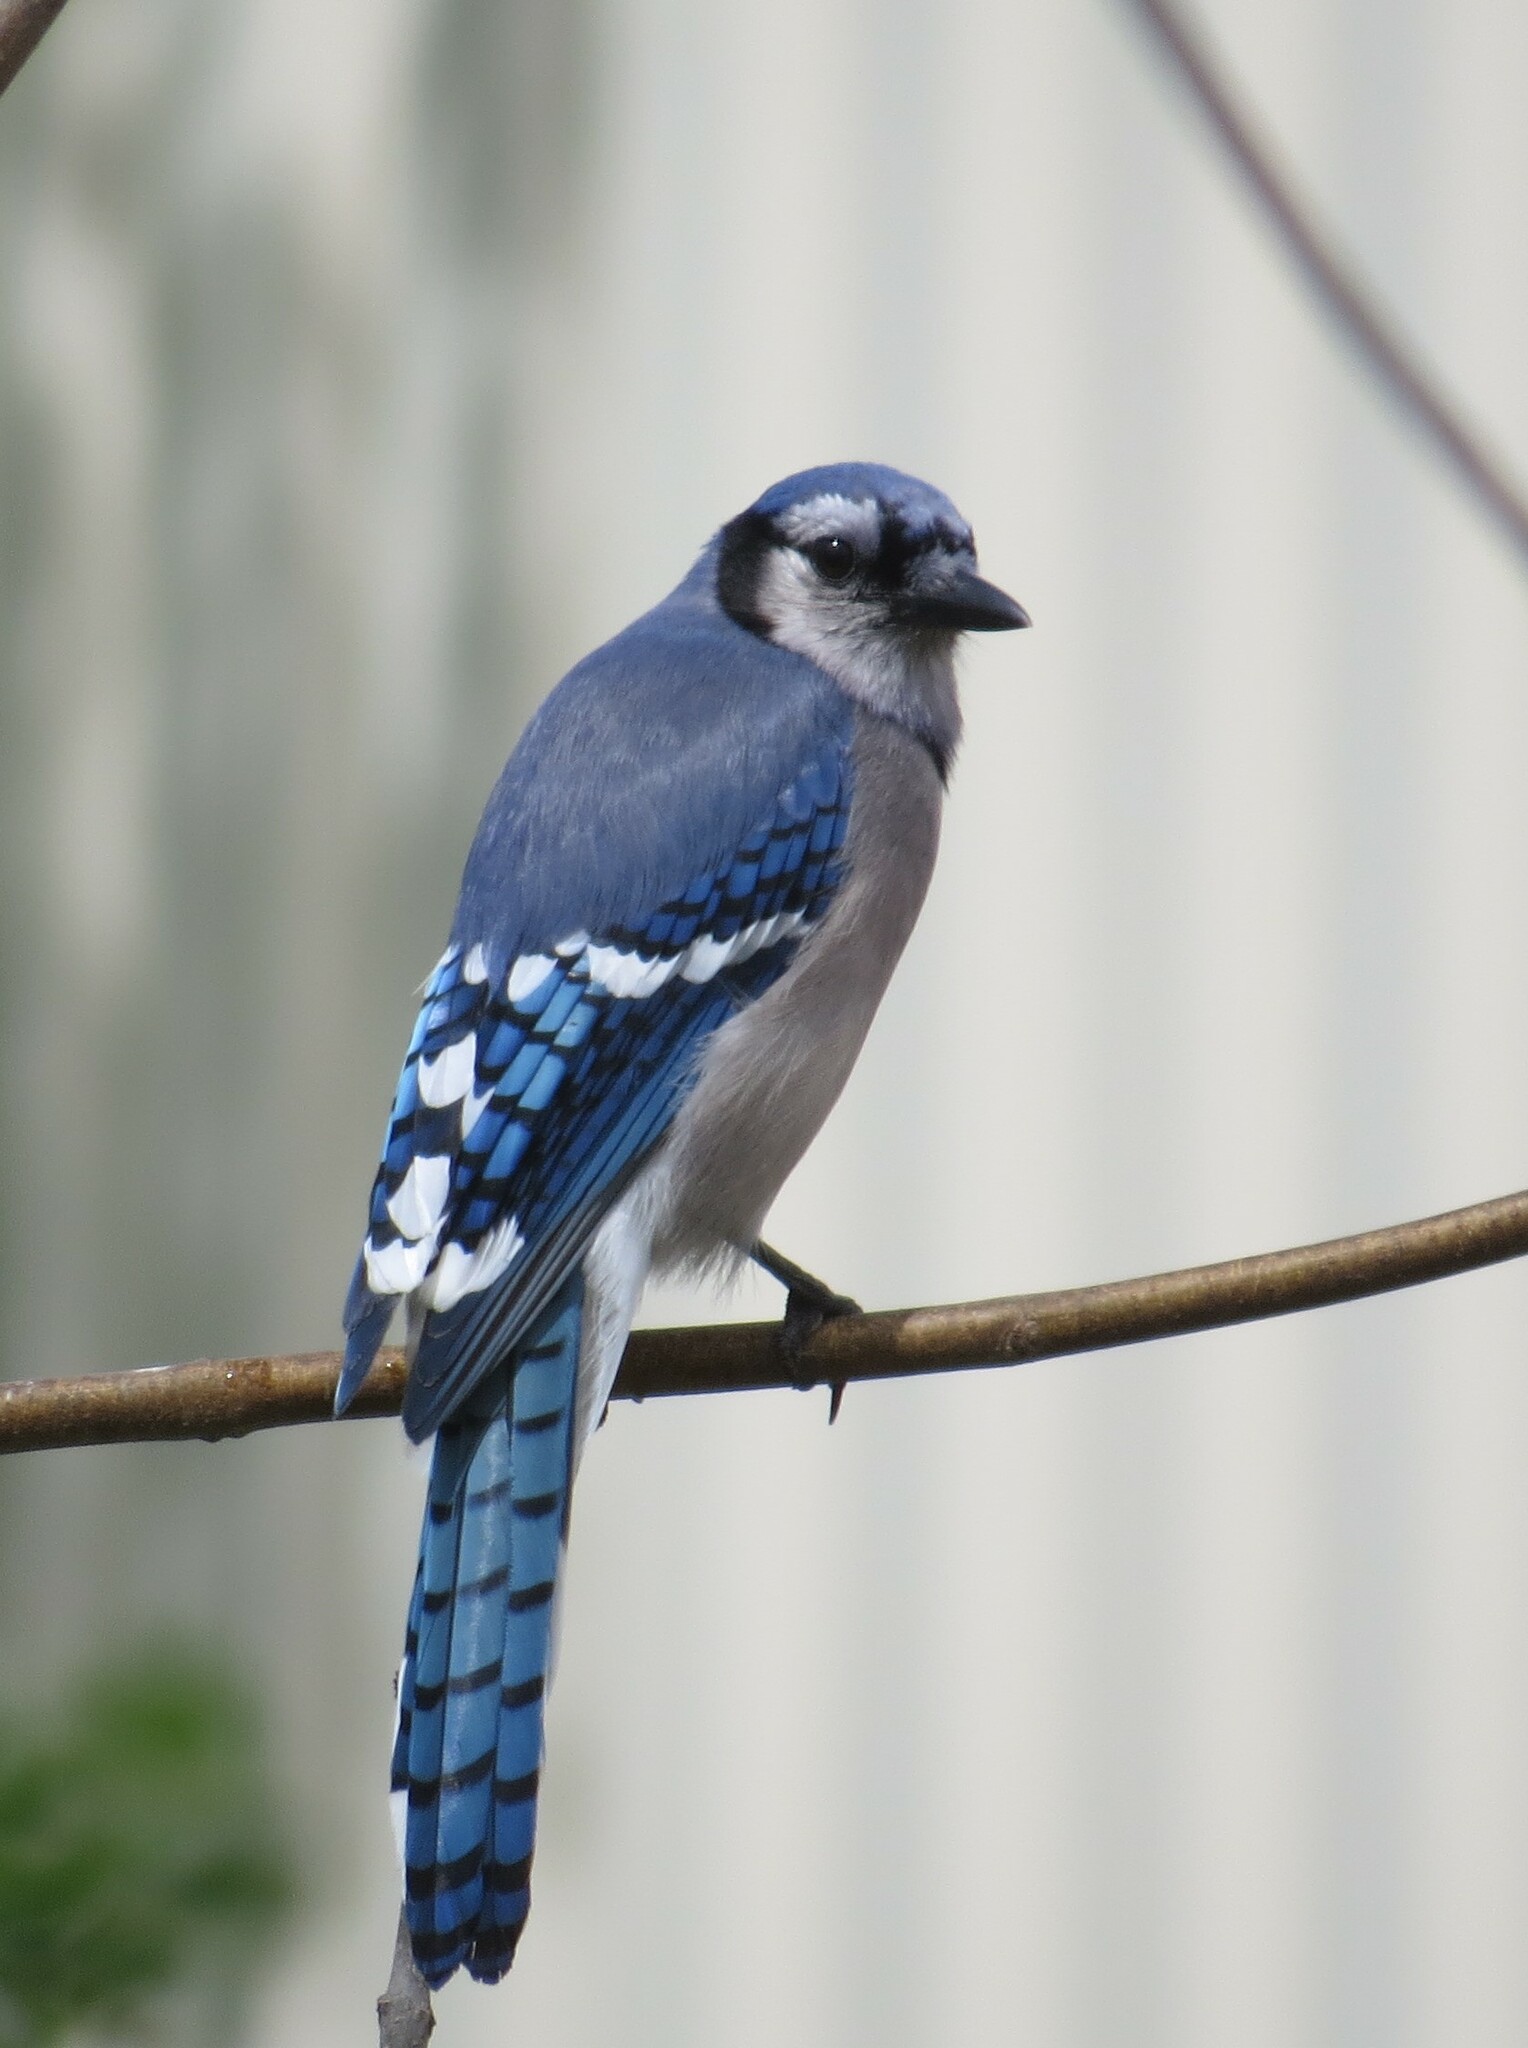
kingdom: Animalia
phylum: Chordata
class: Aves
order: Passeriformes
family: Corvidae
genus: Cyanocitta
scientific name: Cyanocitta cristata
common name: Blue jay
